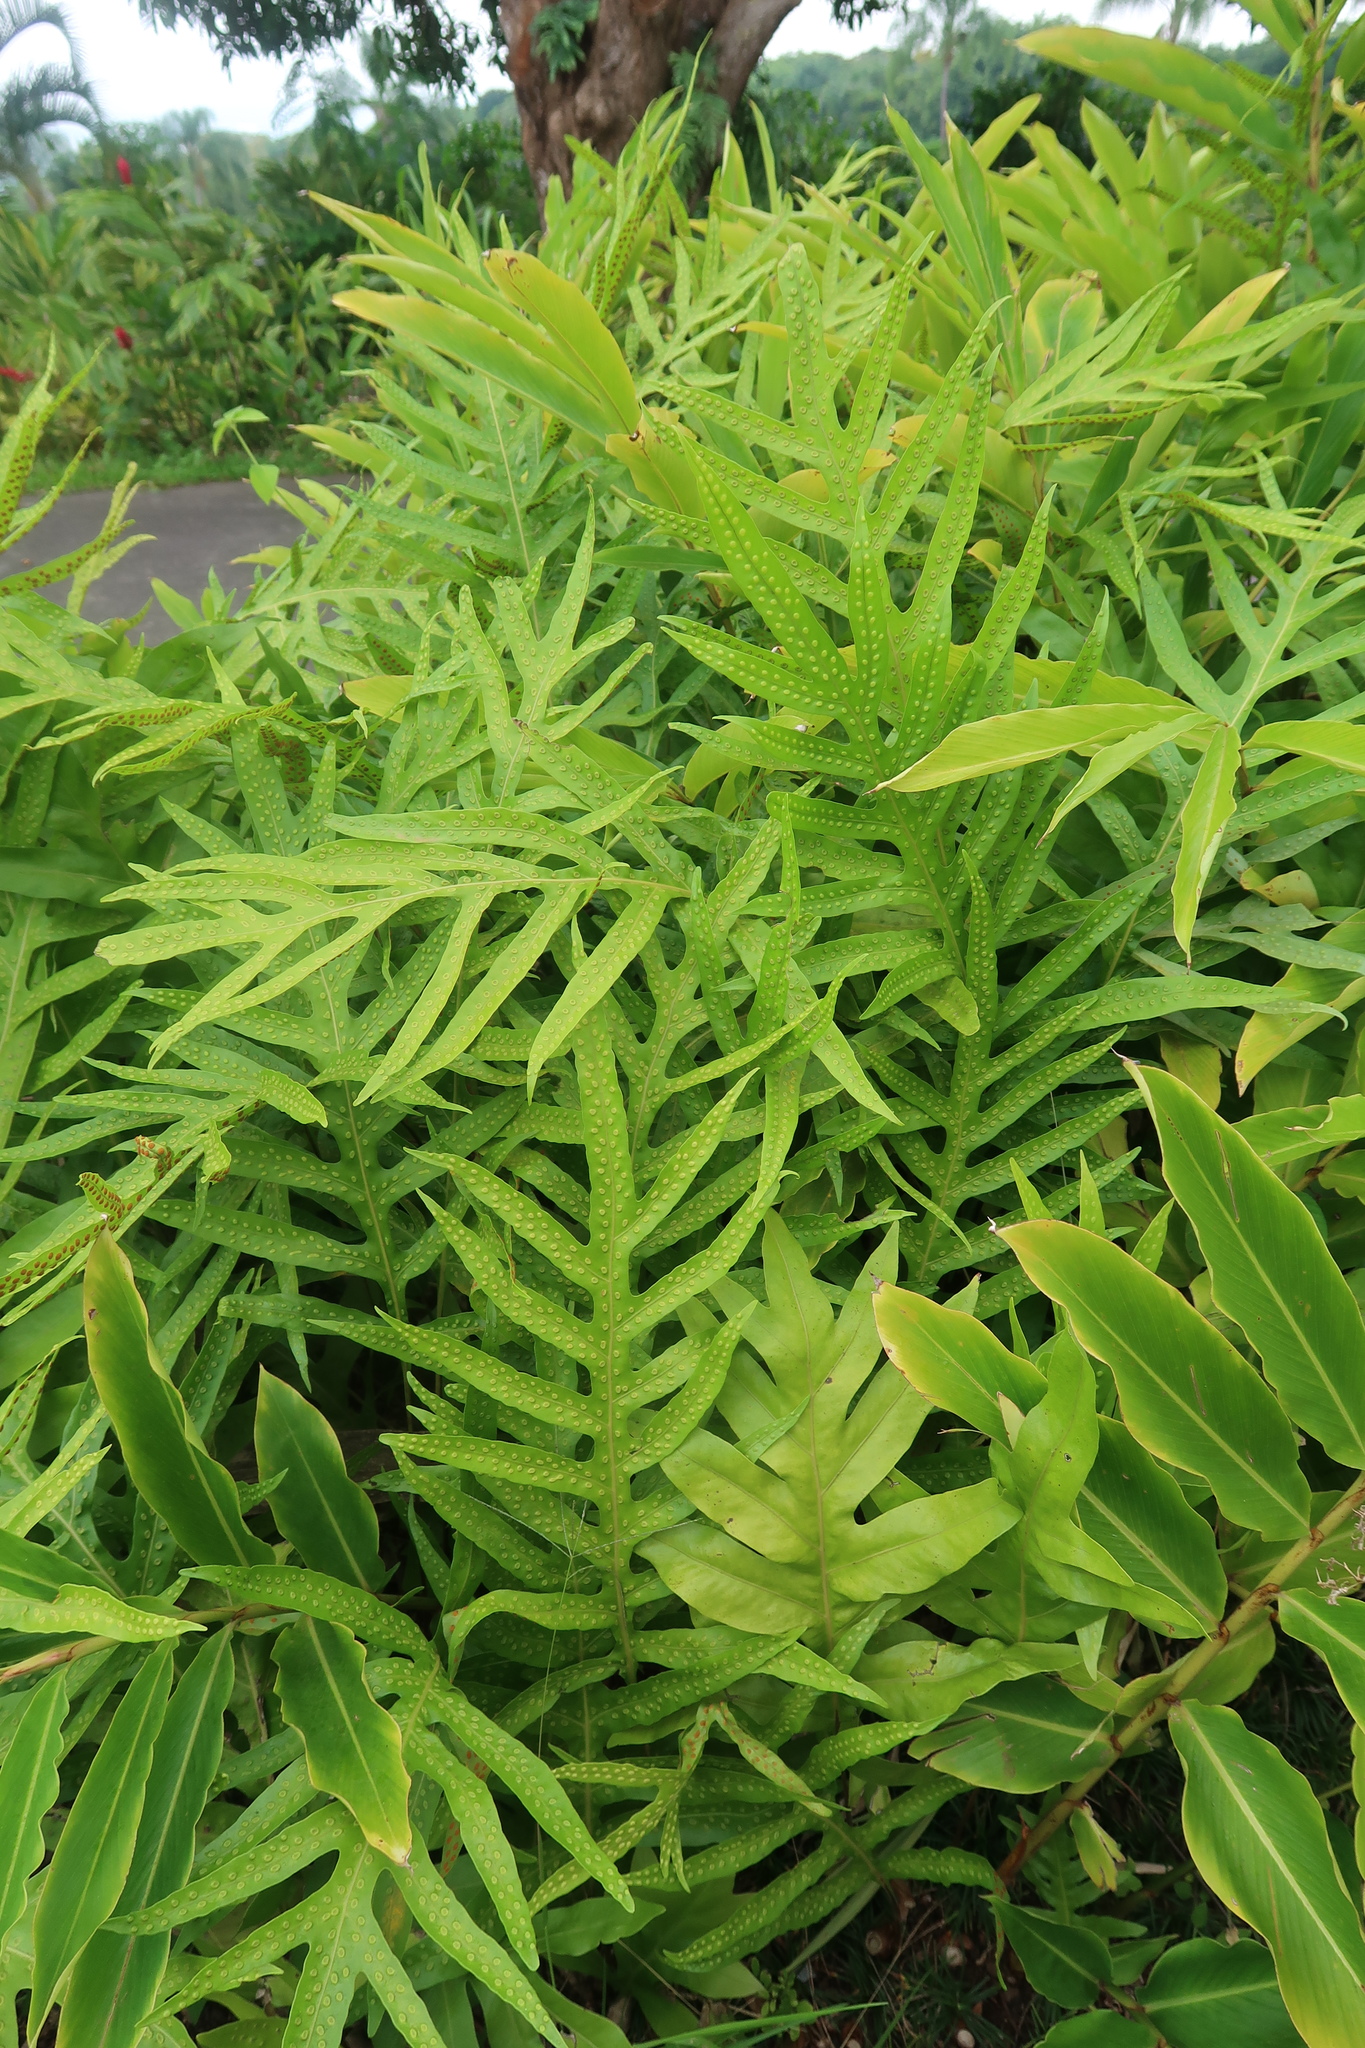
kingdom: Plantae
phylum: Tracheophyta
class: Polypodiopsida
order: Polypodiales
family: Polypodiaceae
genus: Microsorum
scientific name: Microsorum grossum
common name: Musk fern
